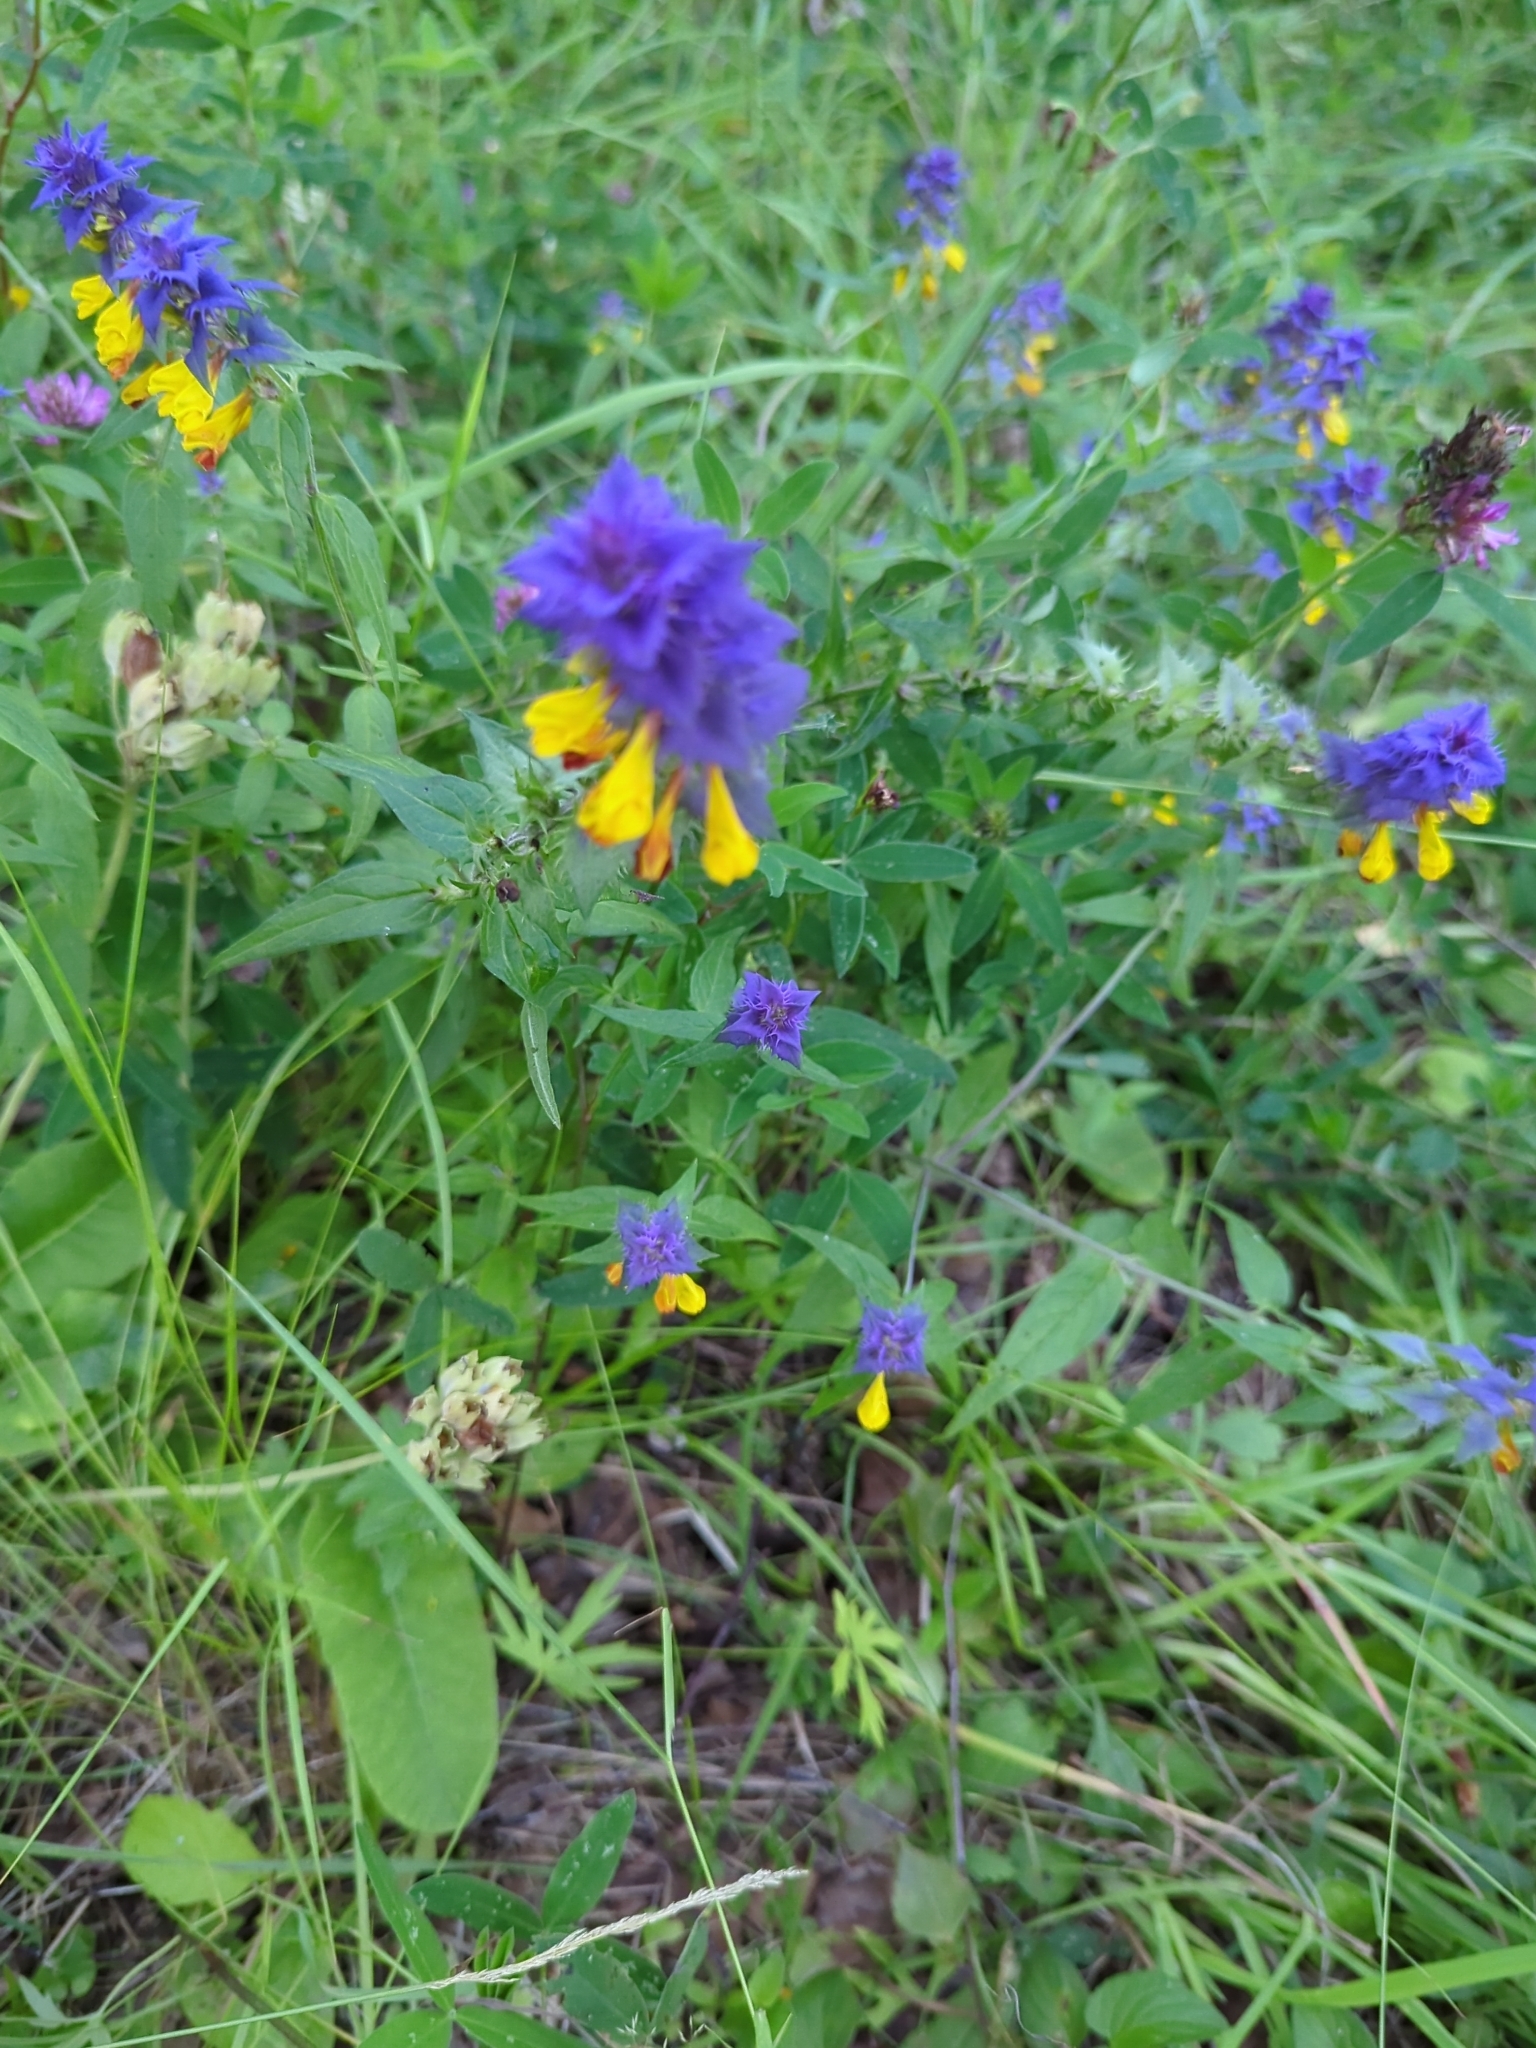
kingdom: Plantae
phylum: Tracheophyta
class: Magnoliopsida
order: Lamiales
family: Orobanchaceae
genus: Melampyrum
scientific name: Melampyrum nemorosum
